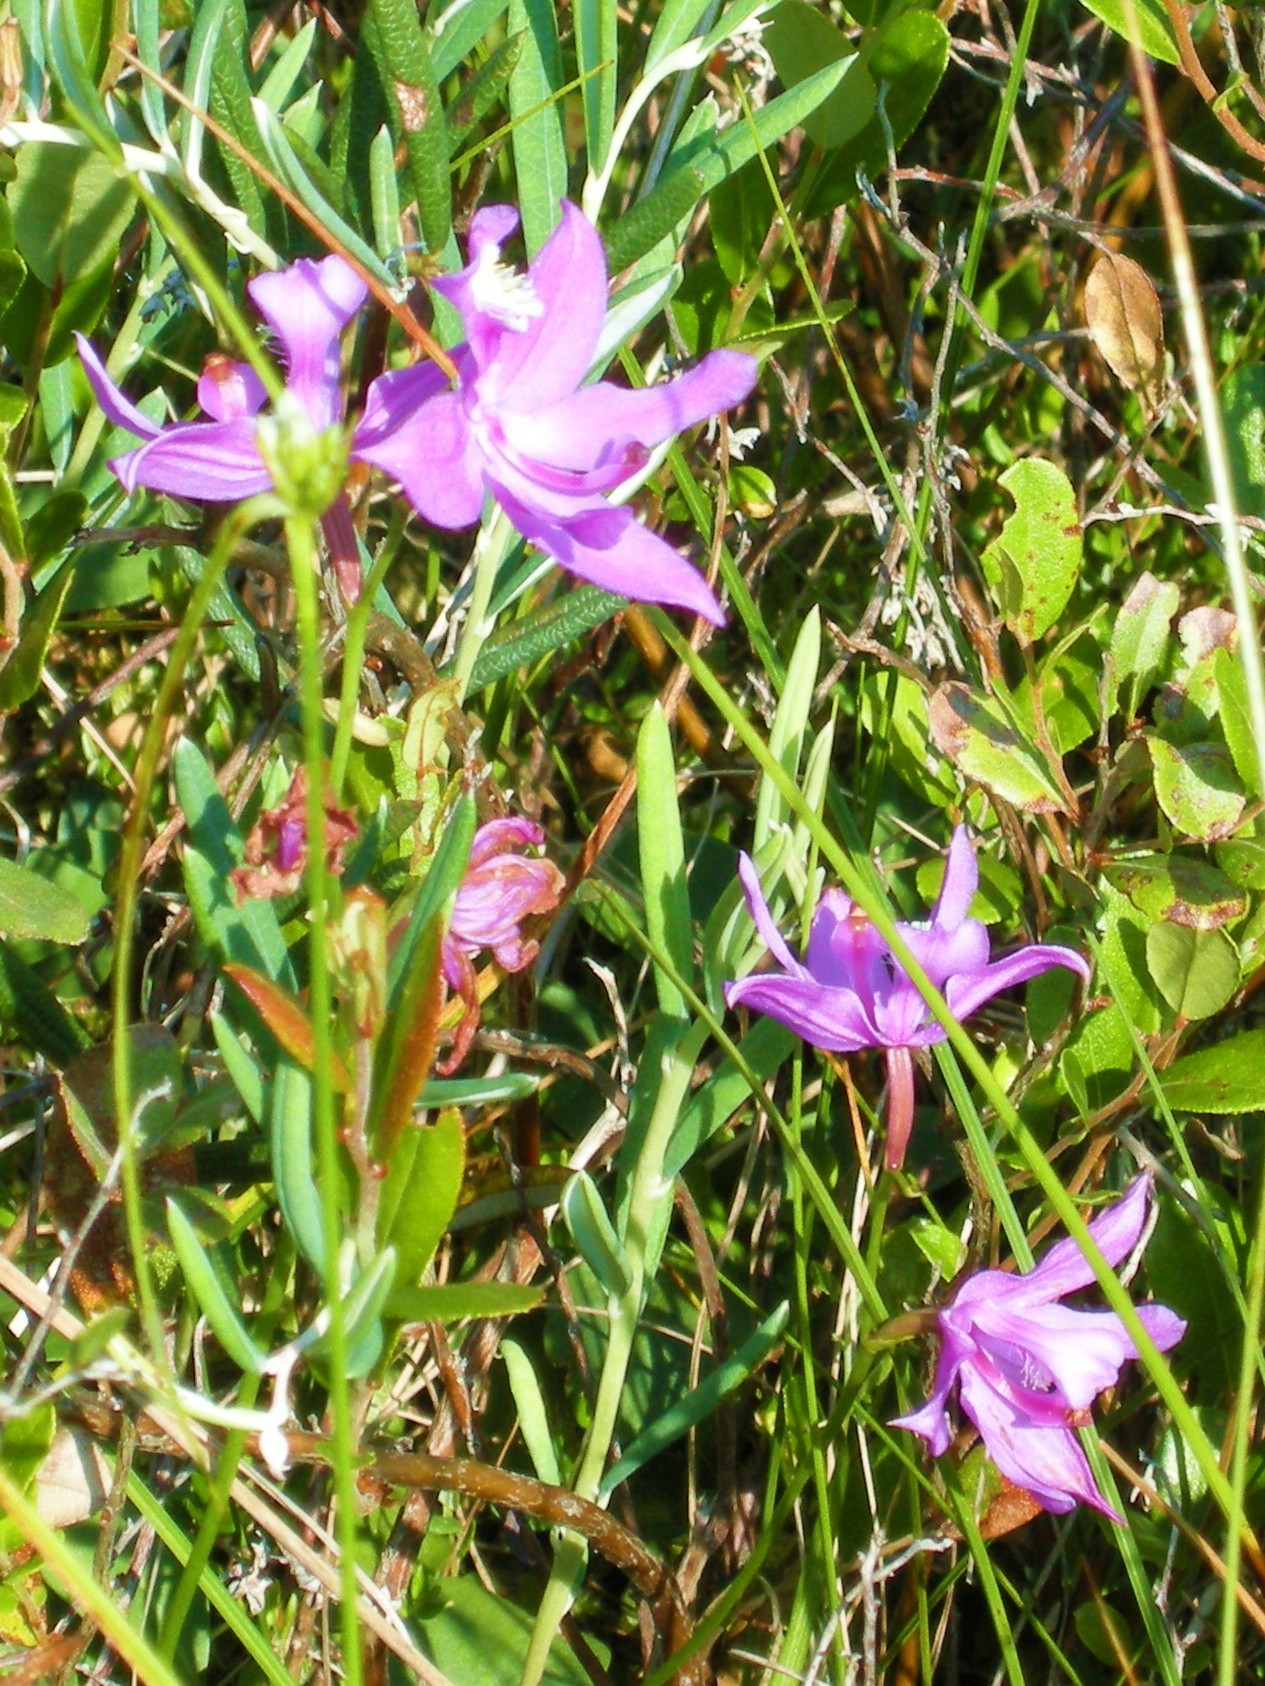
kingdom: Plantae
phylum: Tracheophyta
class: Liliopsida
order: Asparagales
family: Orchidaceae
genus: Calopogon
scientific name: Calopogon tuberosus
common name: Grass-pink
